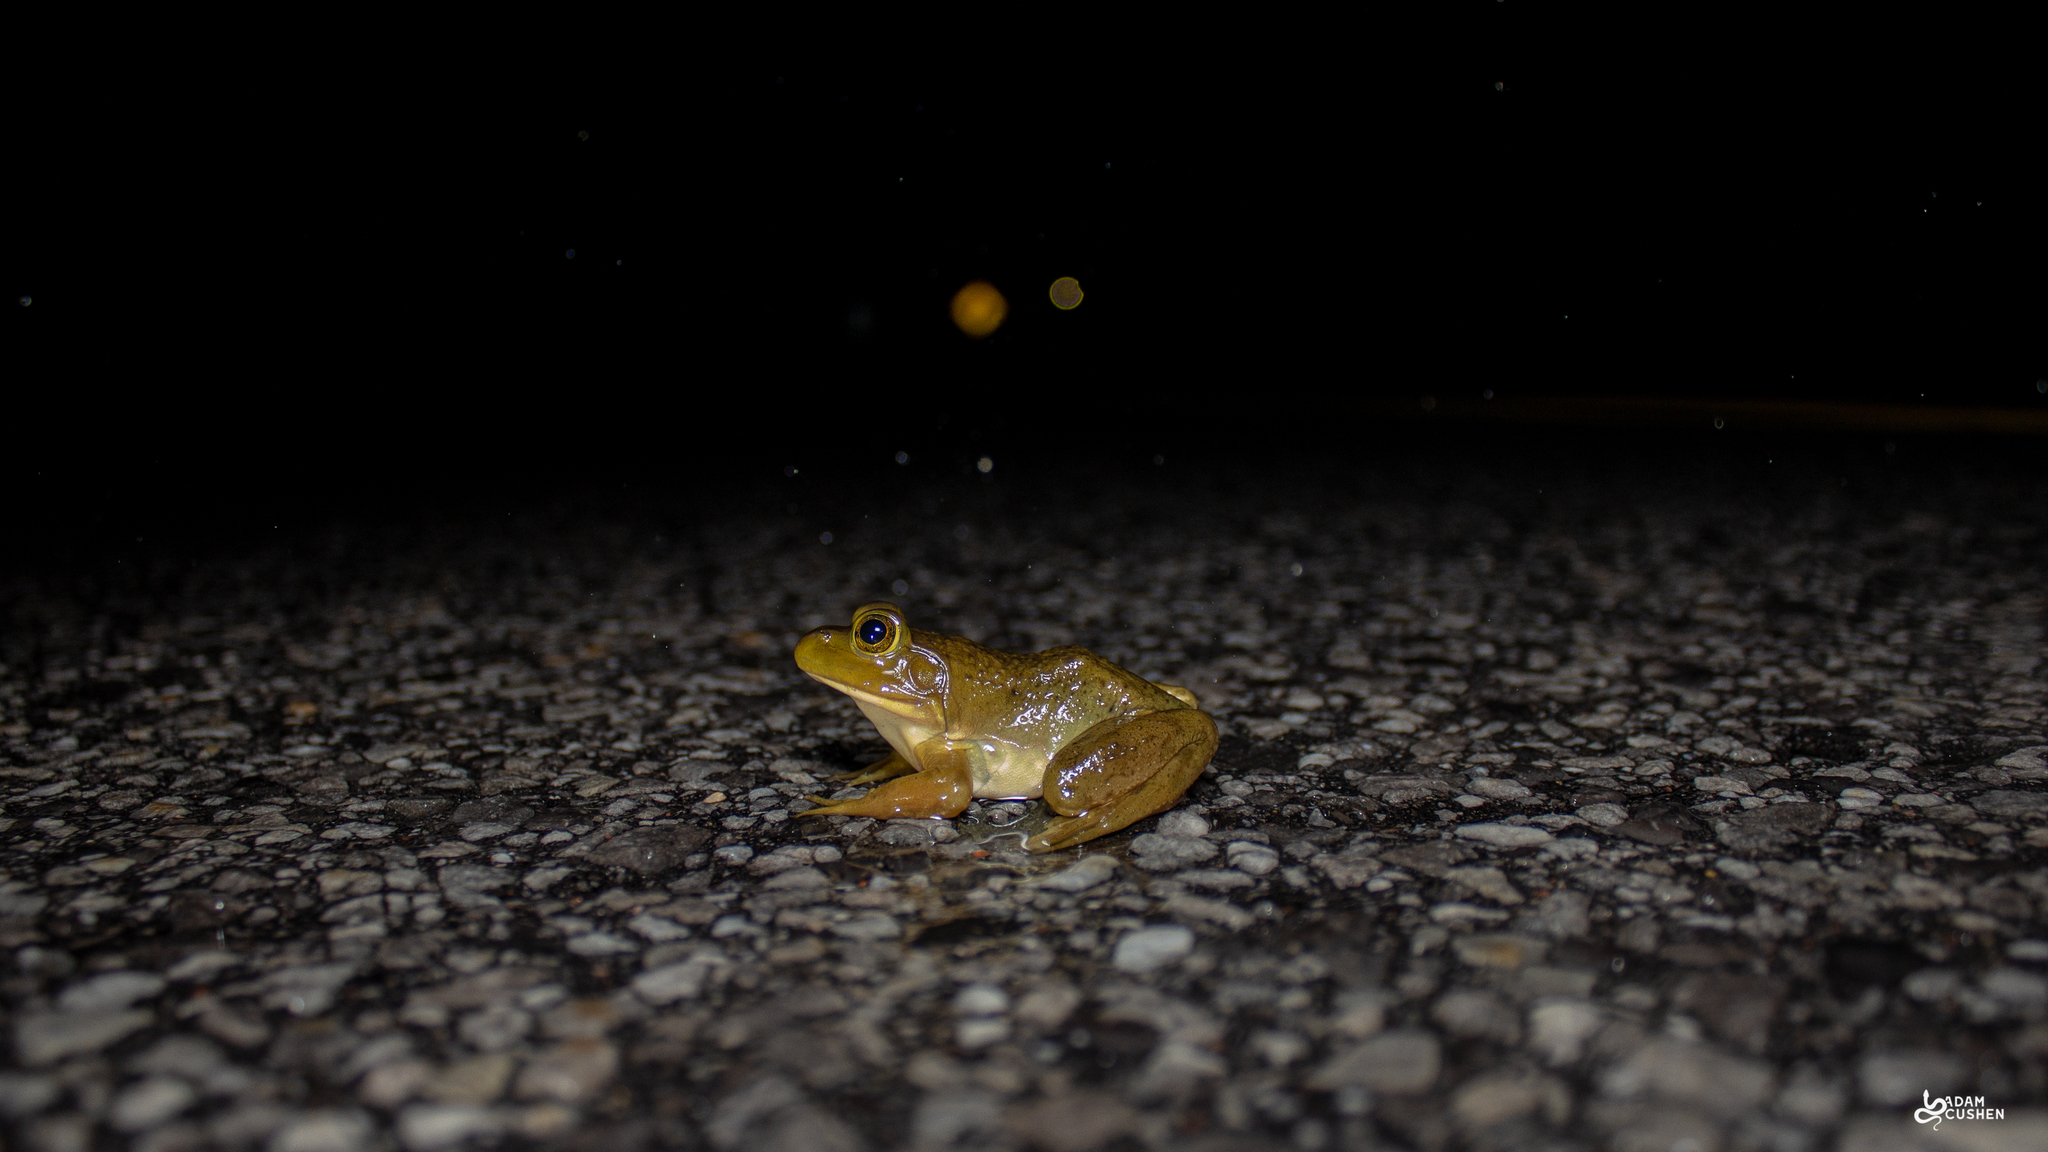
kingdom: Animalia
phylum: Chordata
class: Amphibia
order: Anura
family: Ranidae
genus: Lithobates
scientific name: Lithobates catesbeianus
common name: American bullfrog
